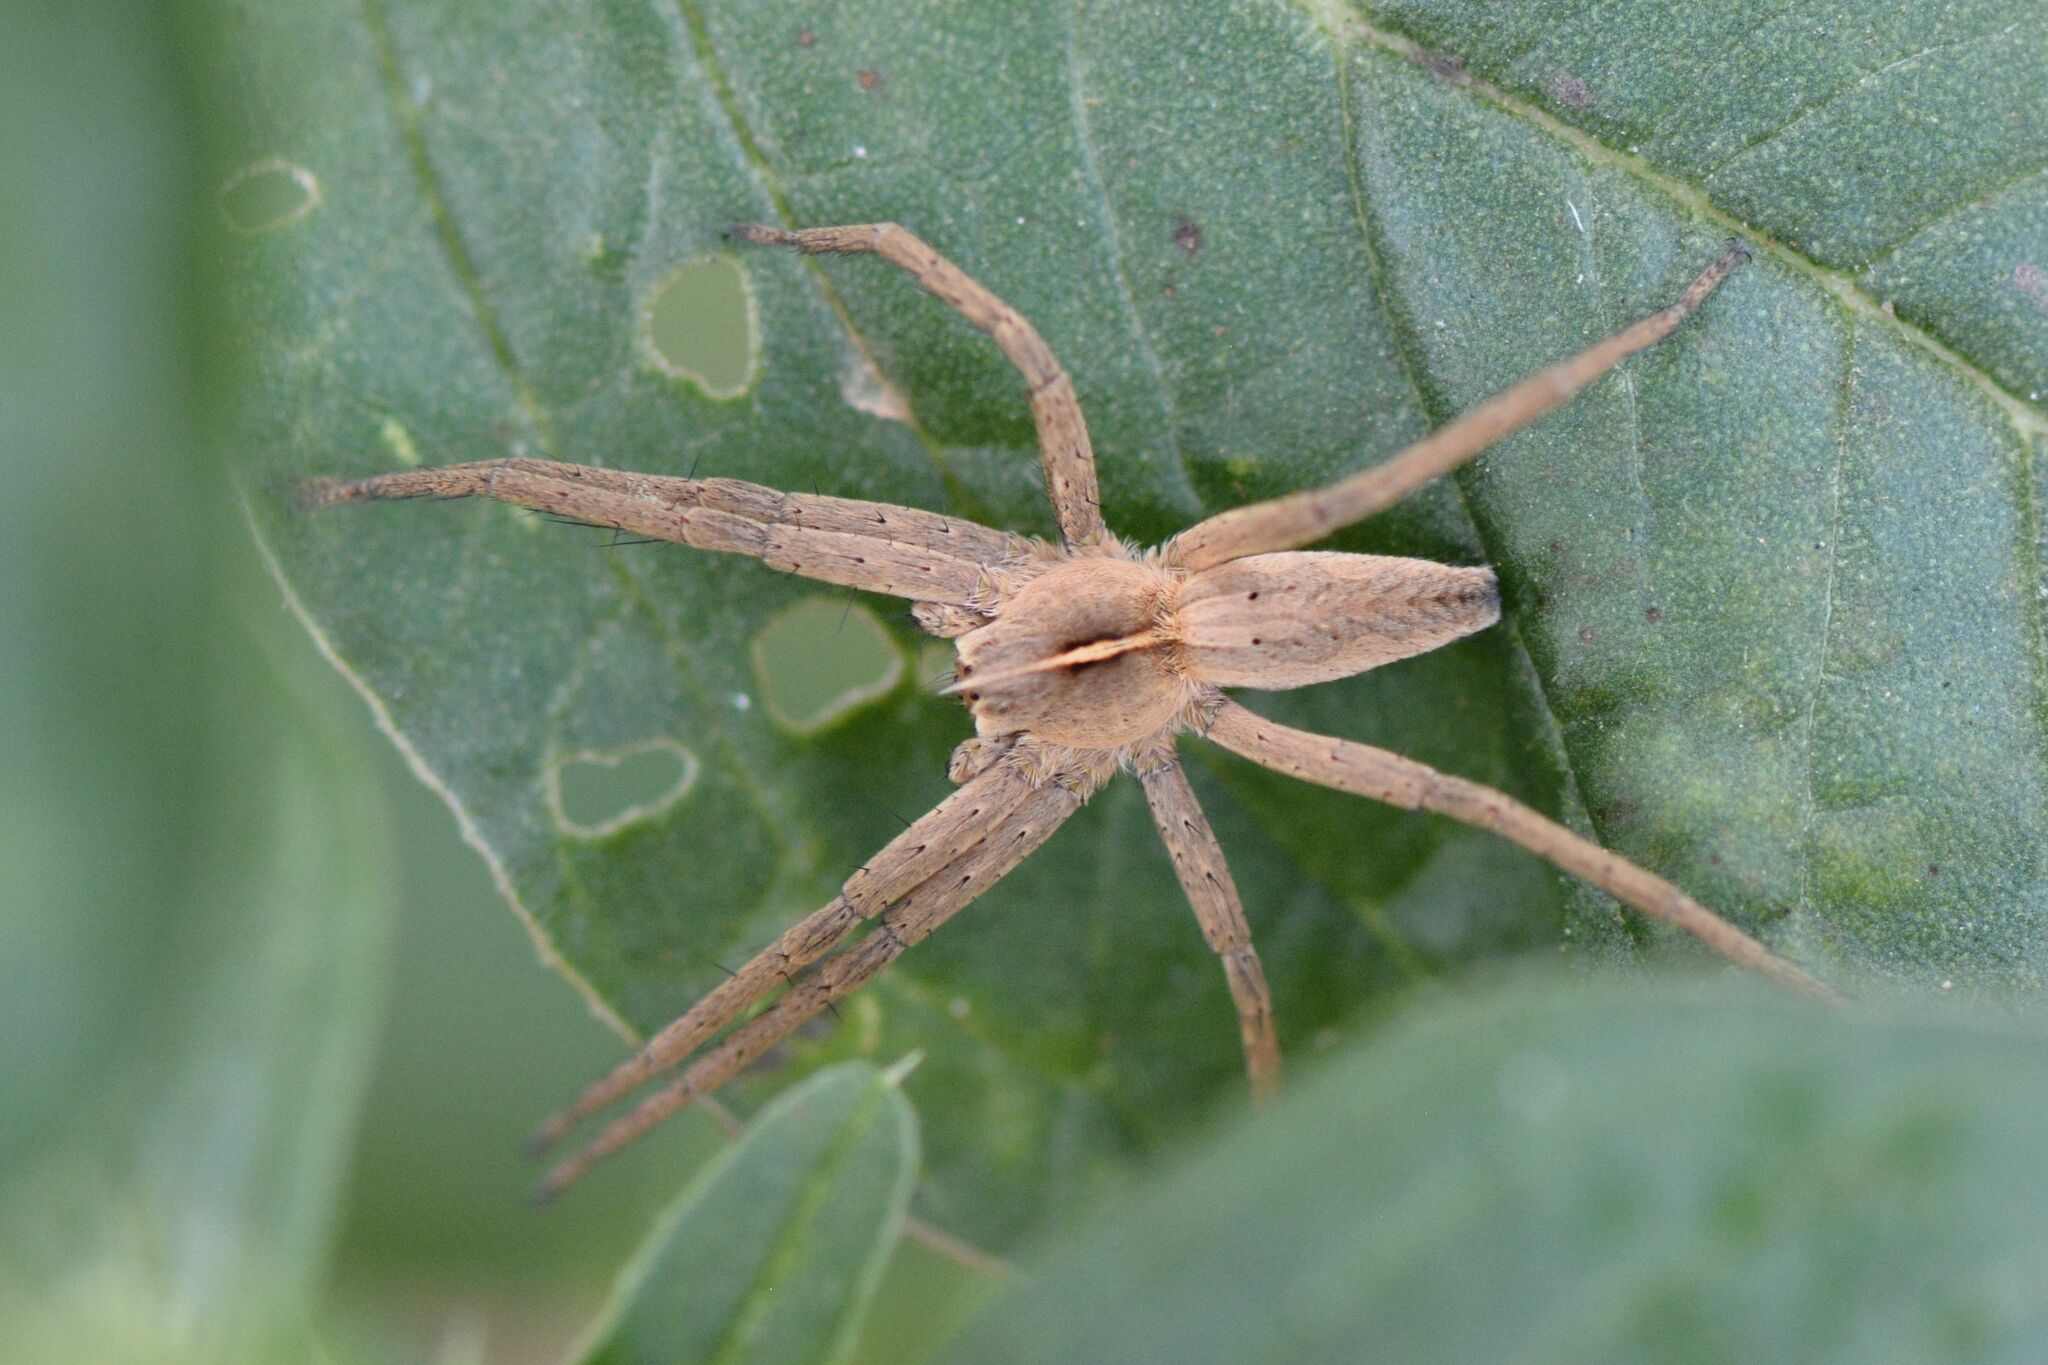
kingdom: Animalia
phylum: Arthropoda
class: Arachnida
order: Araneae
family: Pisauridae
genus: Pisaura
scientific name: Pisaura mirabilis
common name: Tent spider
